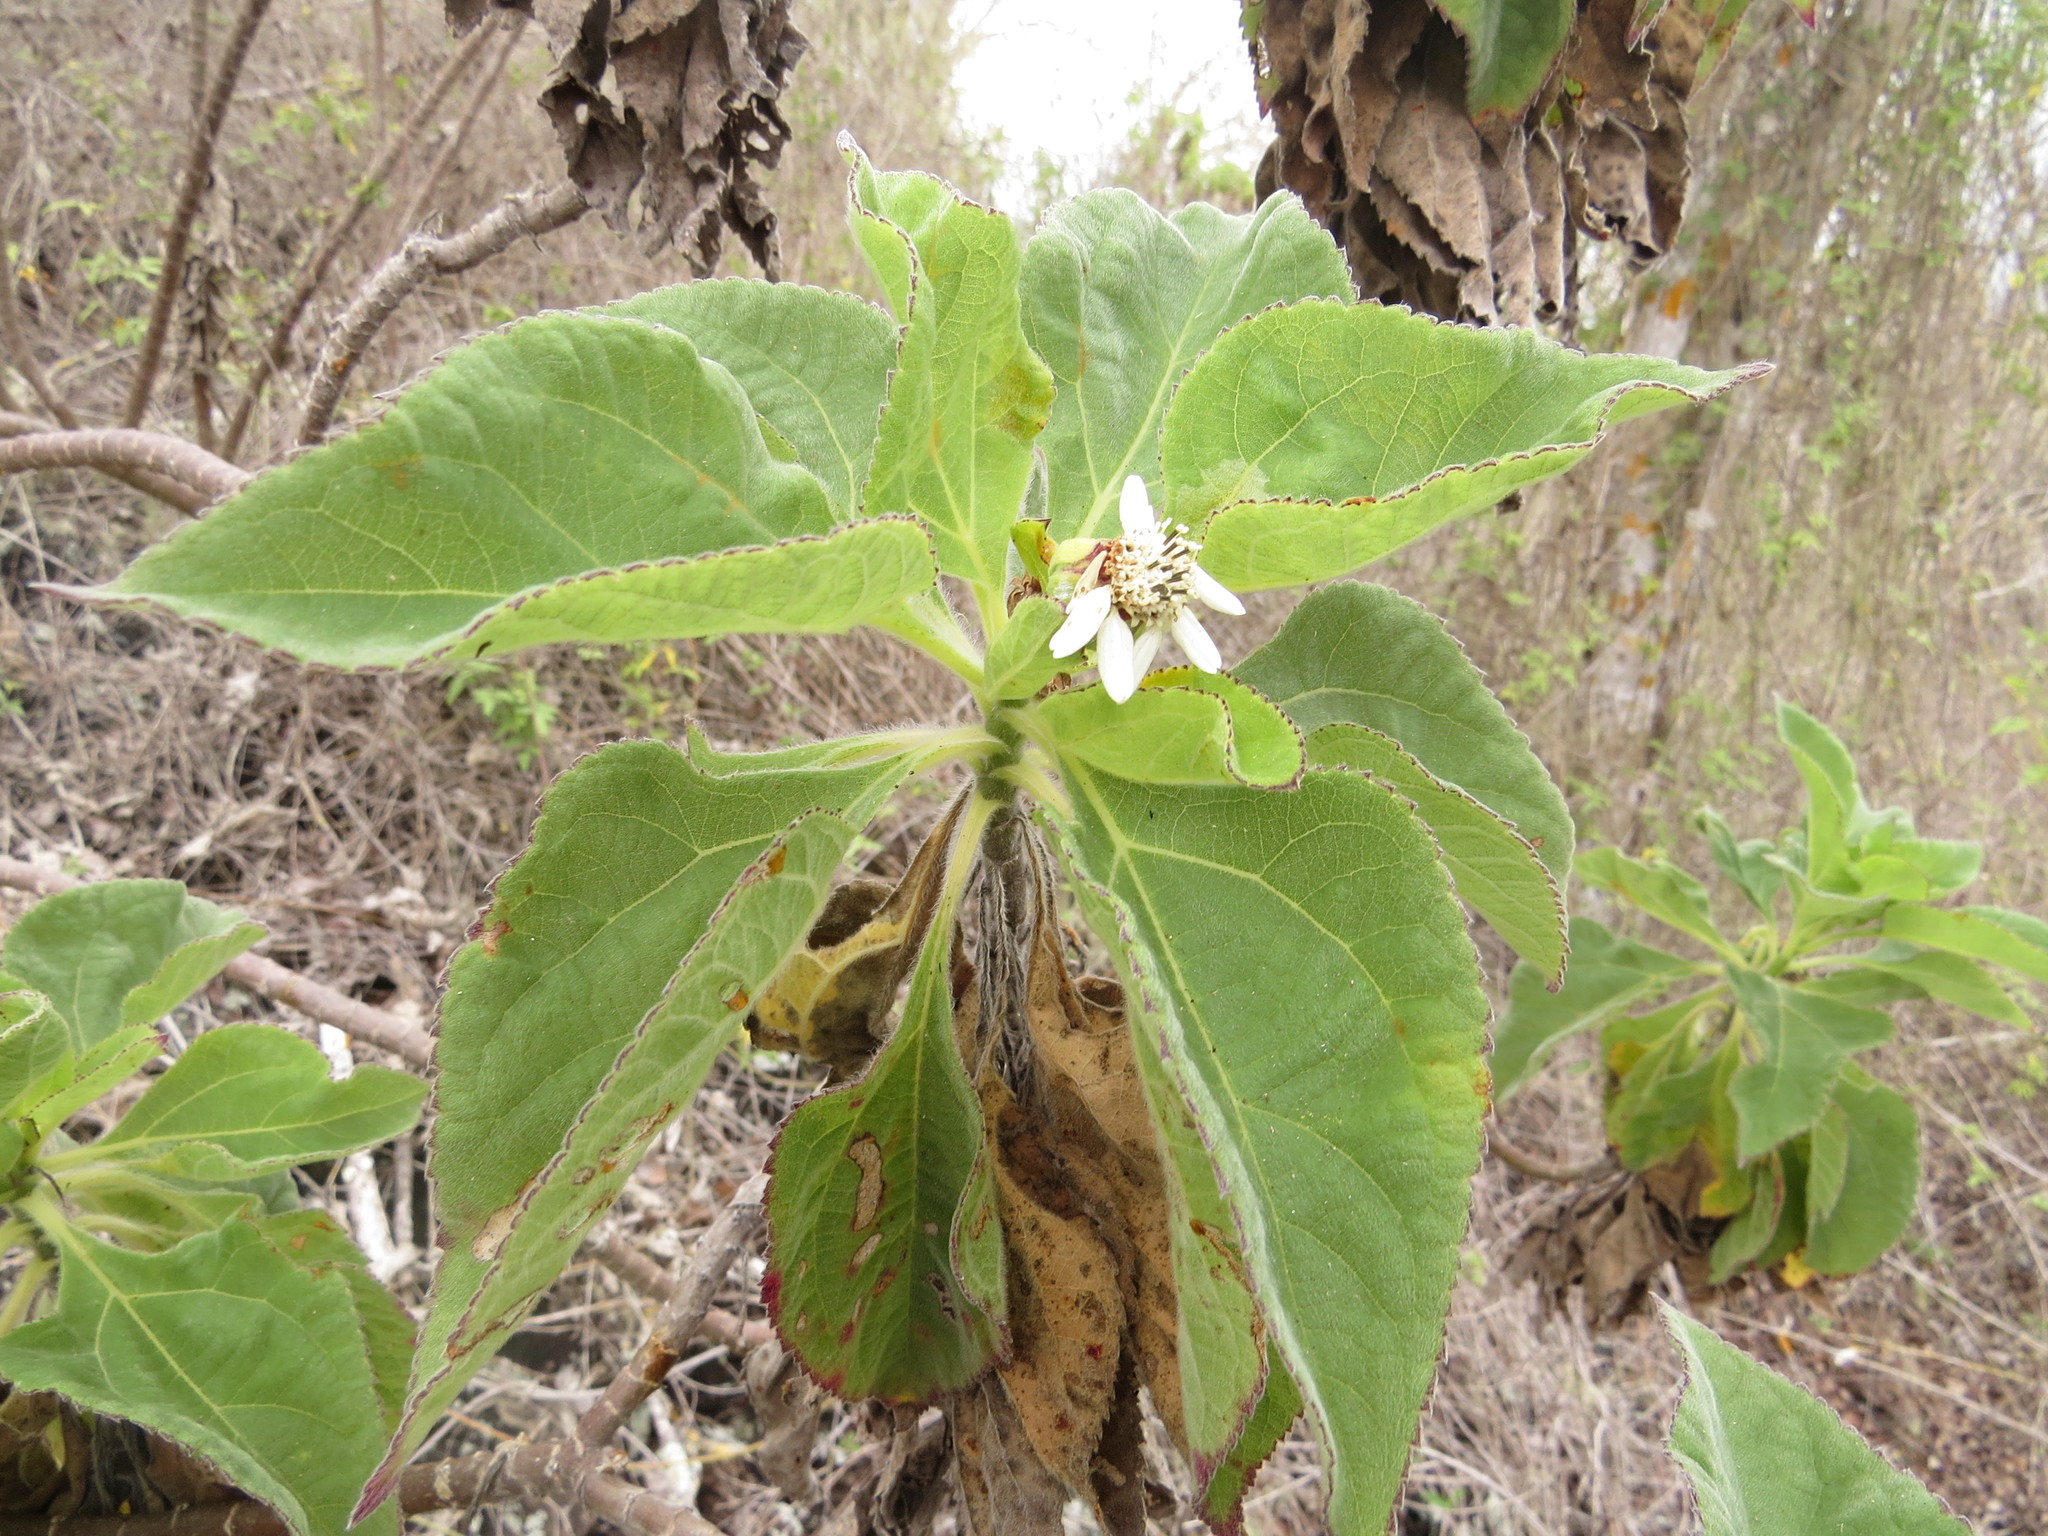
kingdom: Plantae
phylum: Tracheophyta
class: Magnoliopsida
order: Asterales
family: Asteraceae
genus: Scalesia
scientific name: Scalesia affinis
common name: Radiate-headed scalesia
